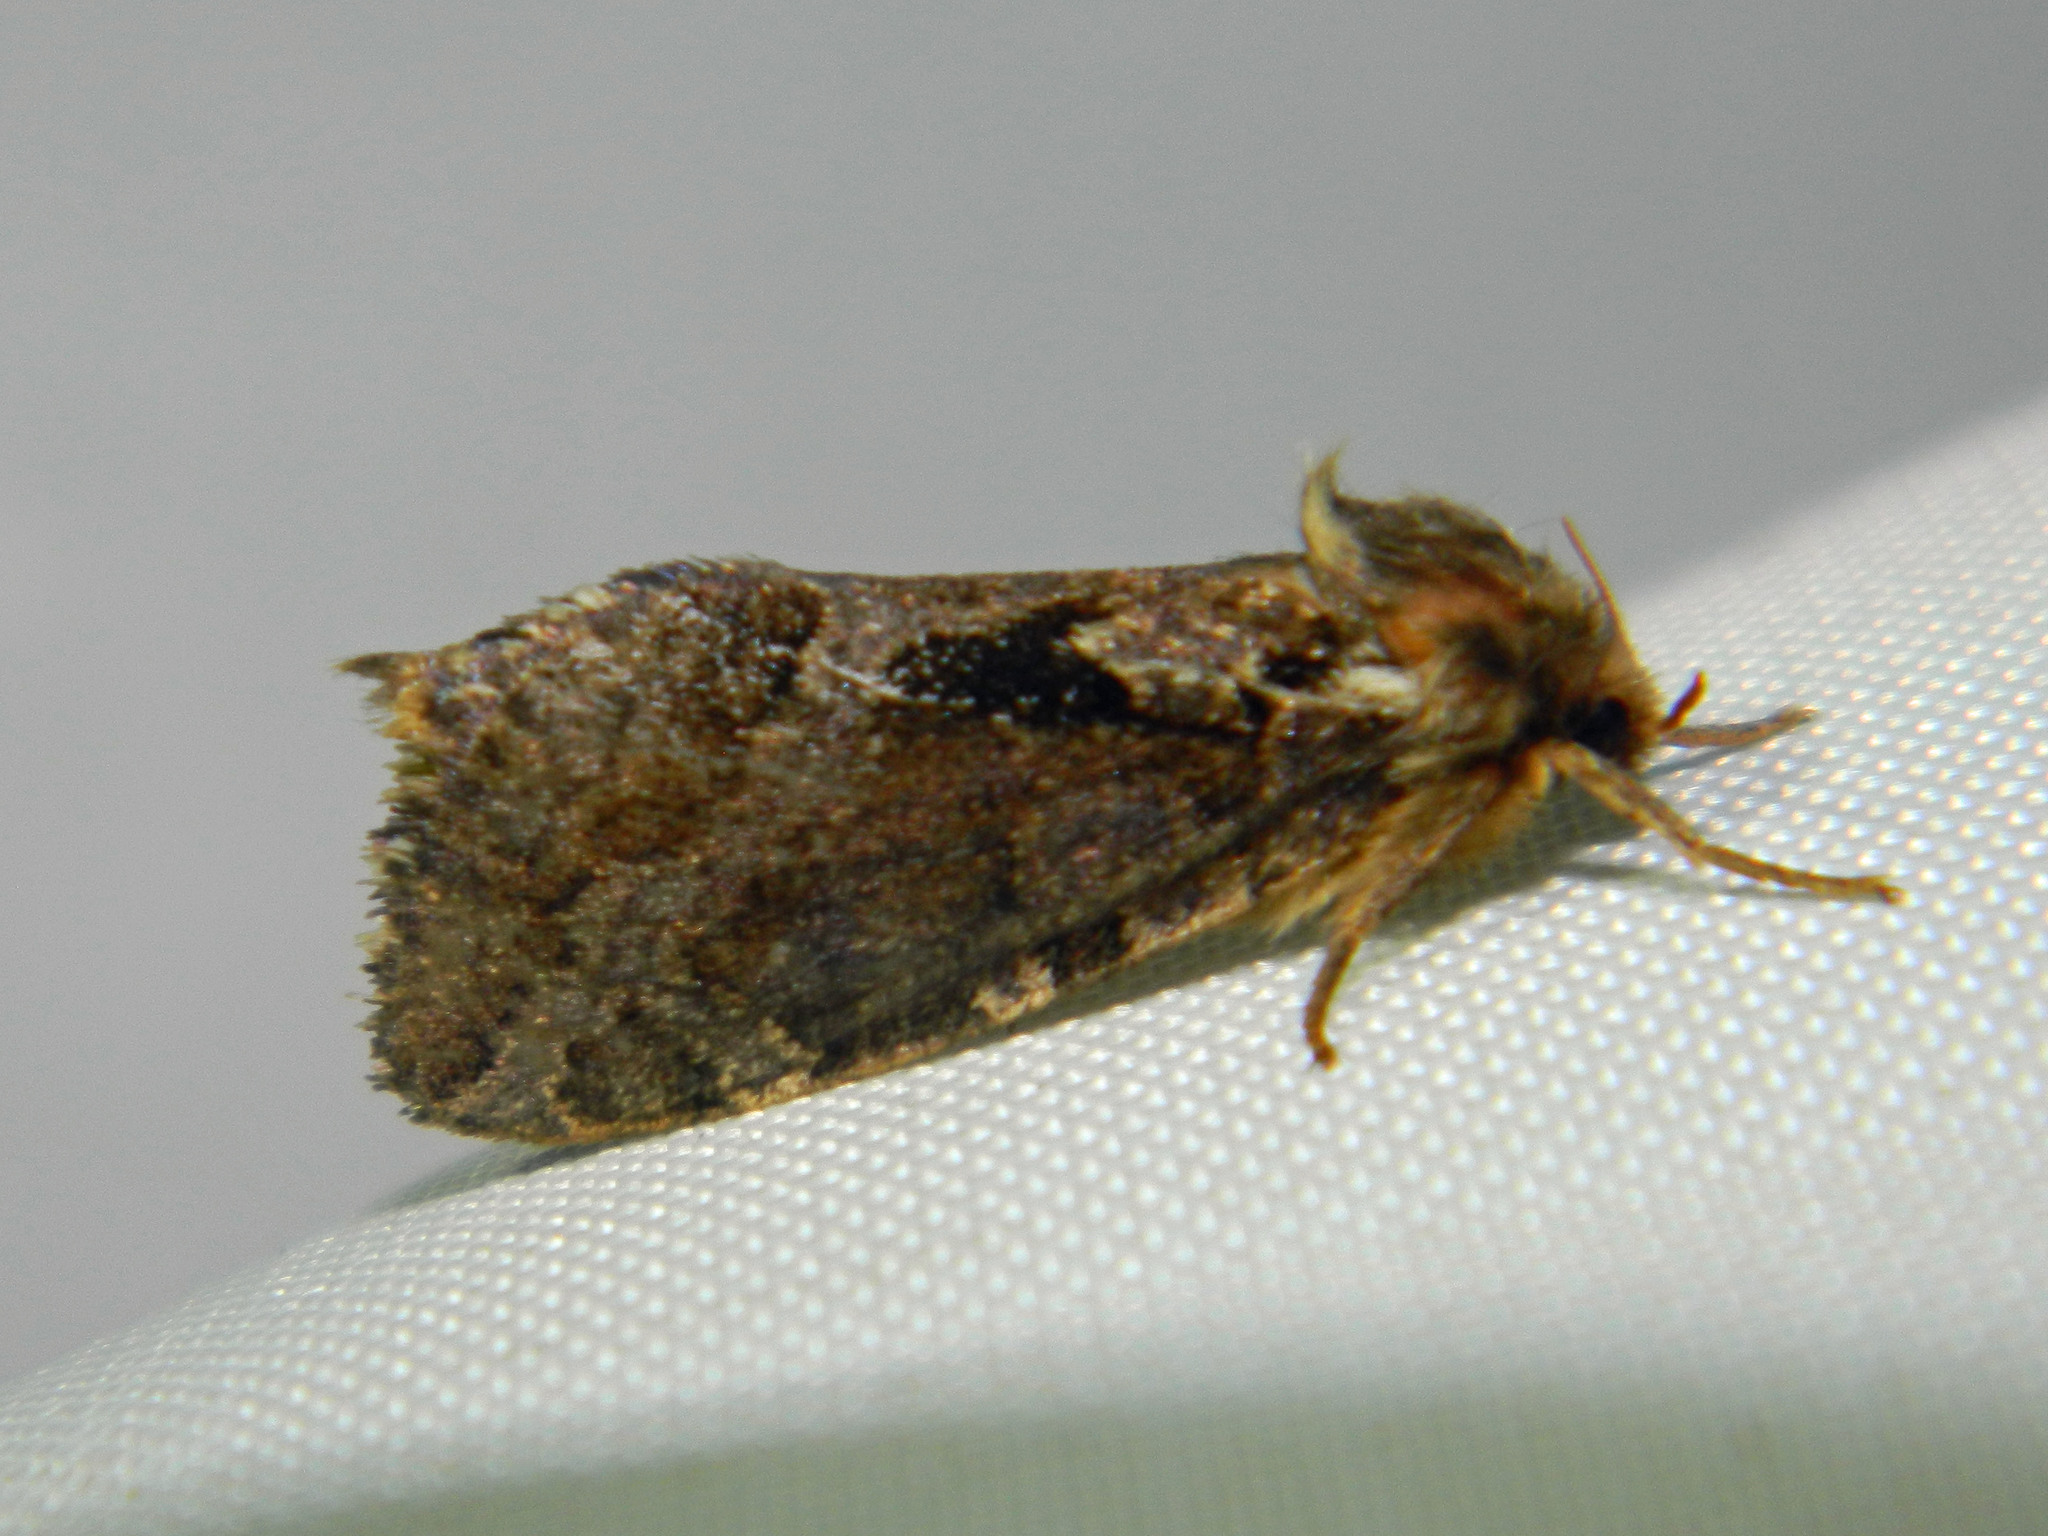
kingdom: Animalia
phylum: Arthropoda
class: Insecta
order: Lepidoptera
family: Hepialidae
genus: Korscheltellus
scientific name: Korscheltellus gracilis
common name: Conifer swift moth
